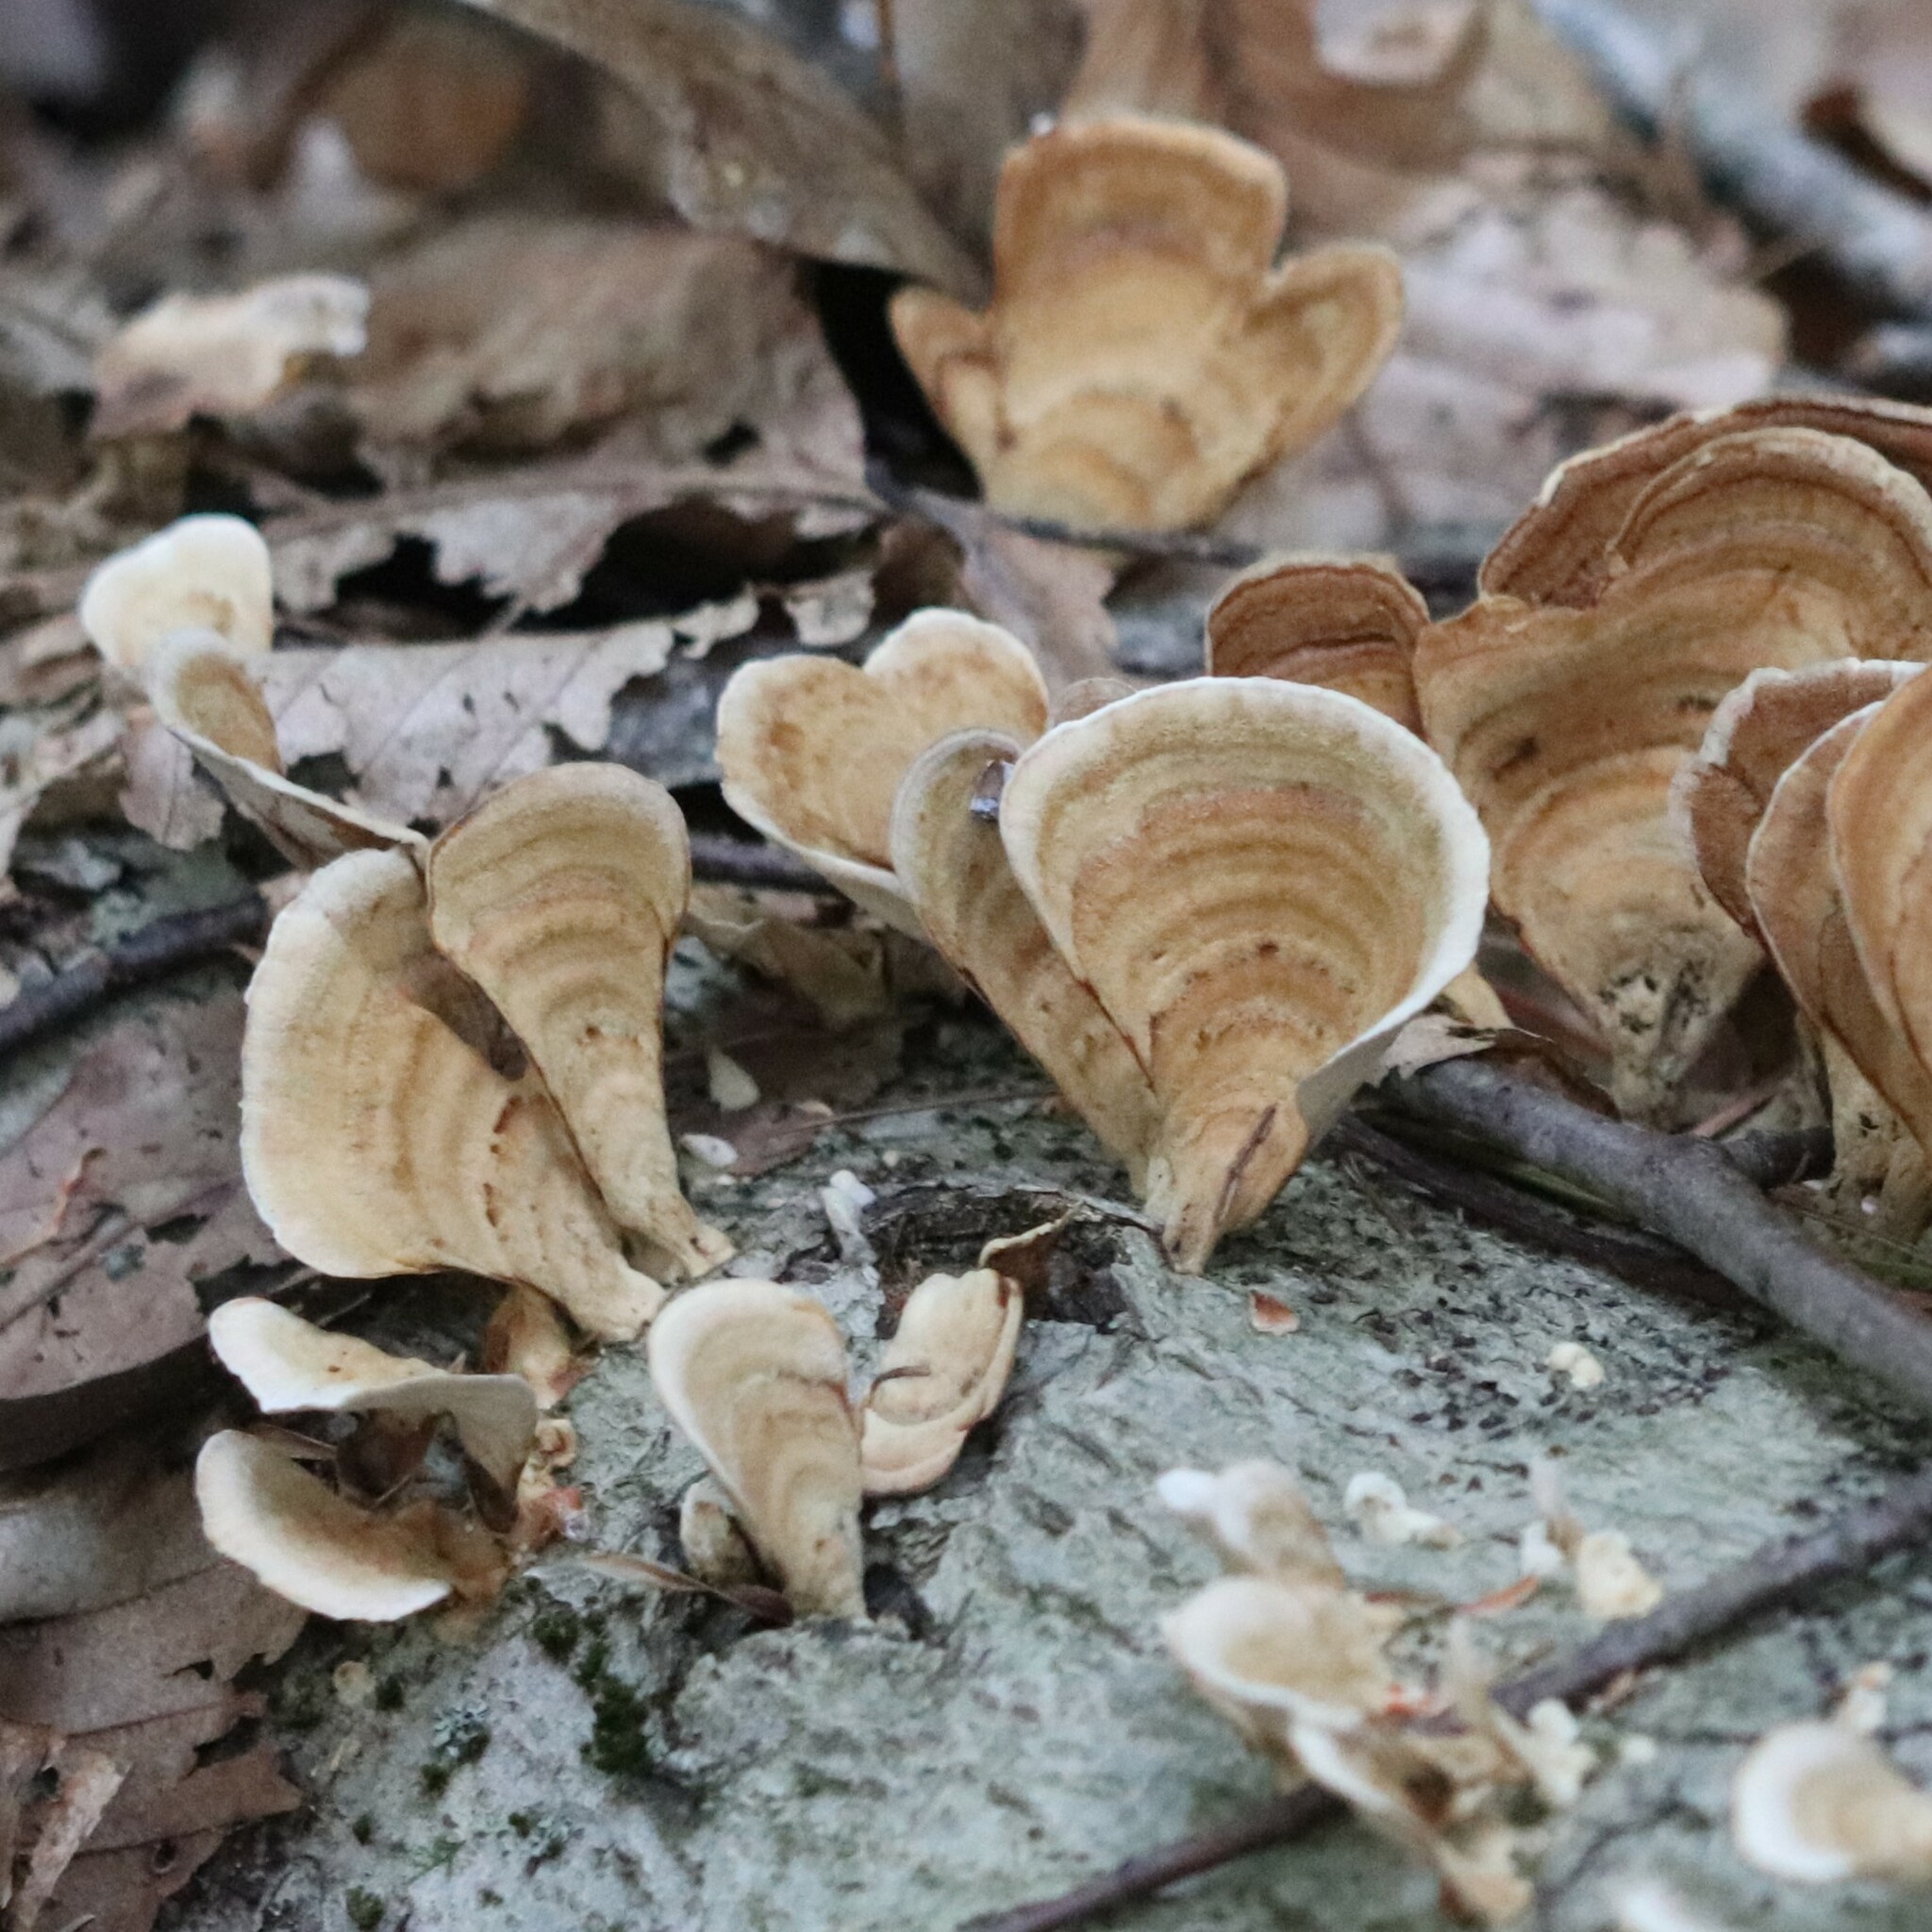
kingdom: Fungi
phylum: Basidiomycota
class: Agaricomycetes
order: Russulales
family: Stereaceae
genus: Stereum
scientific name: Stereum lobatum
